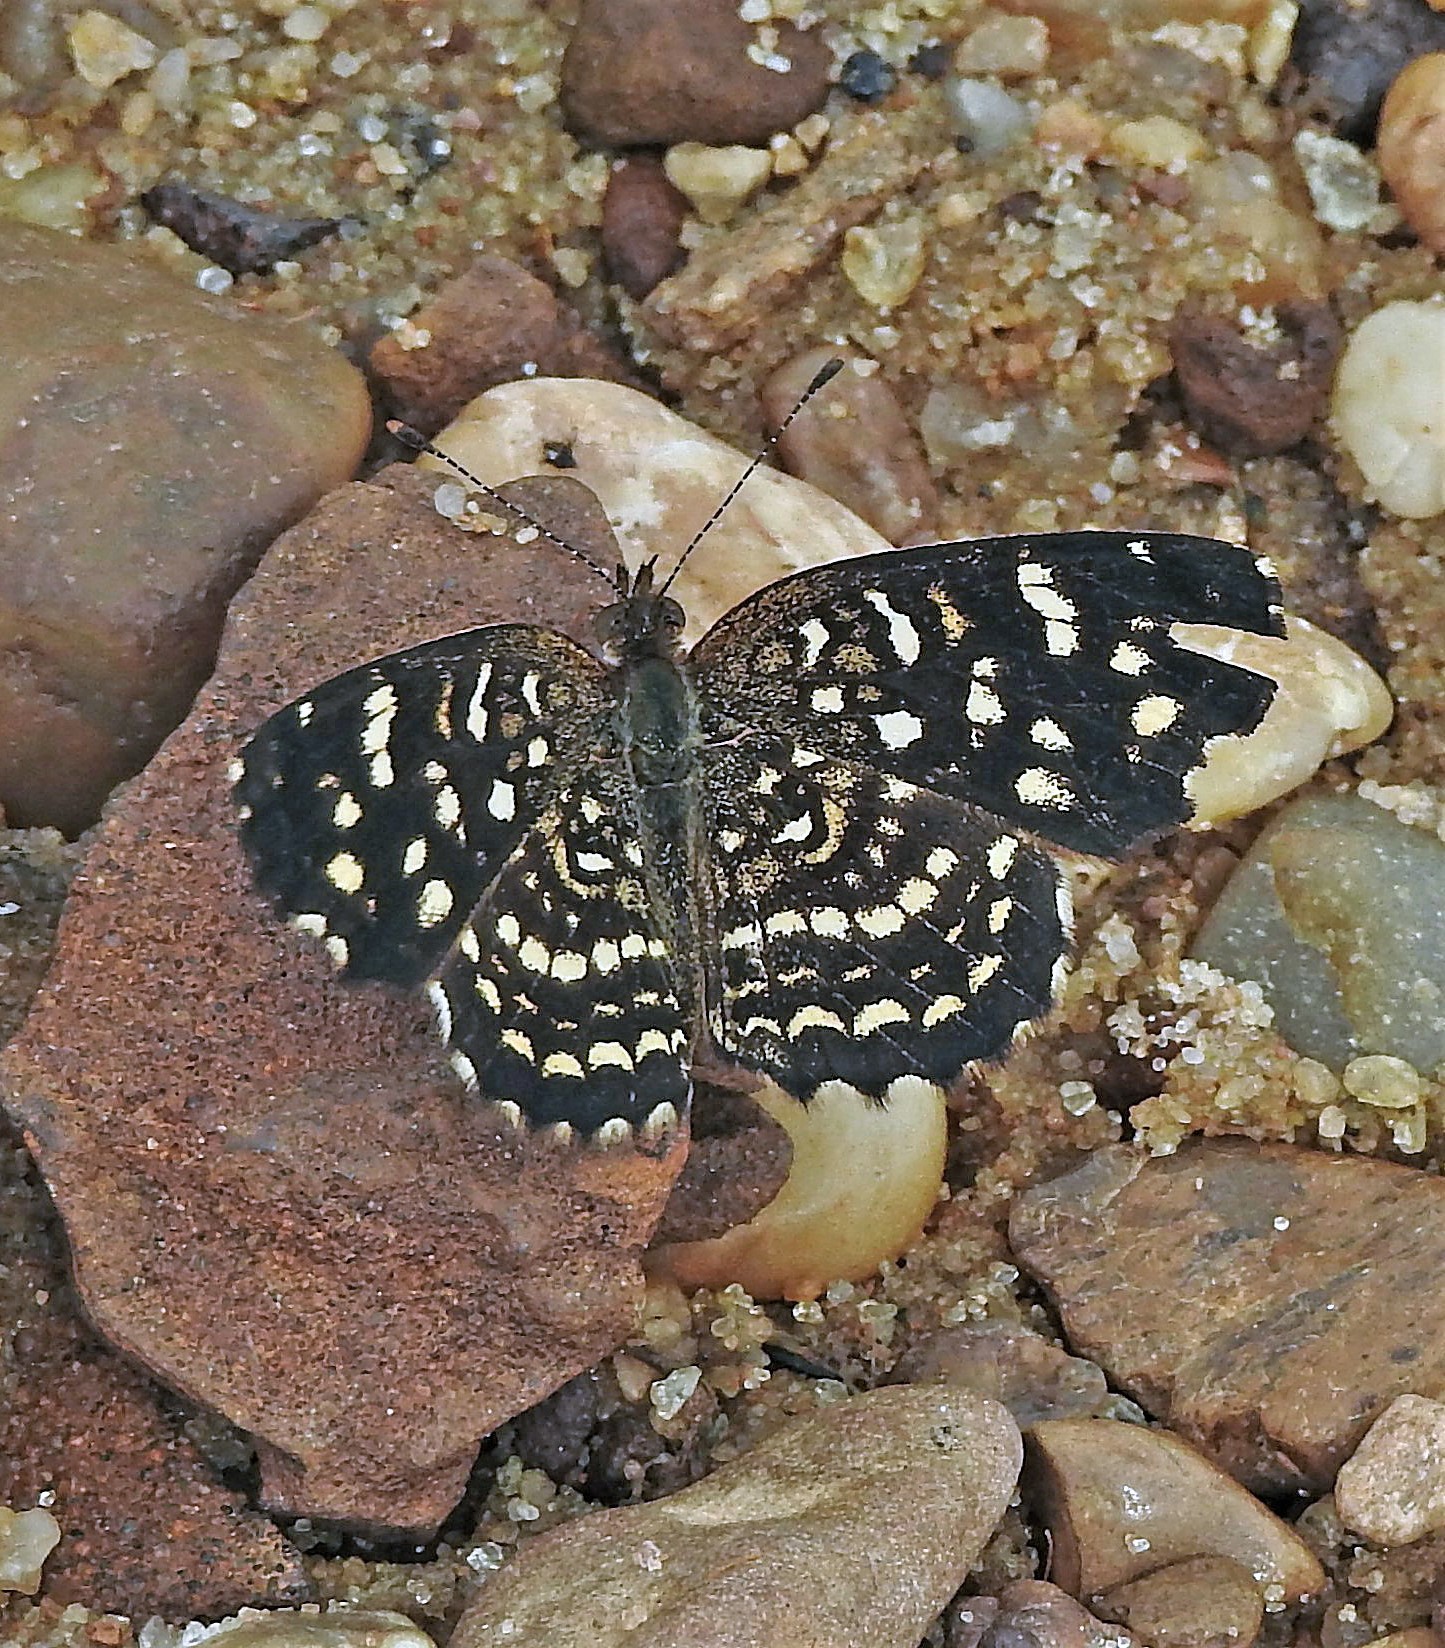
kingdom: Animalia
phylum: Arthropoda
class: Insecta
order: Lepidoptera
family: Nymphalidae
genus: Anthanassa
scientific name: Anthanassa hermas
